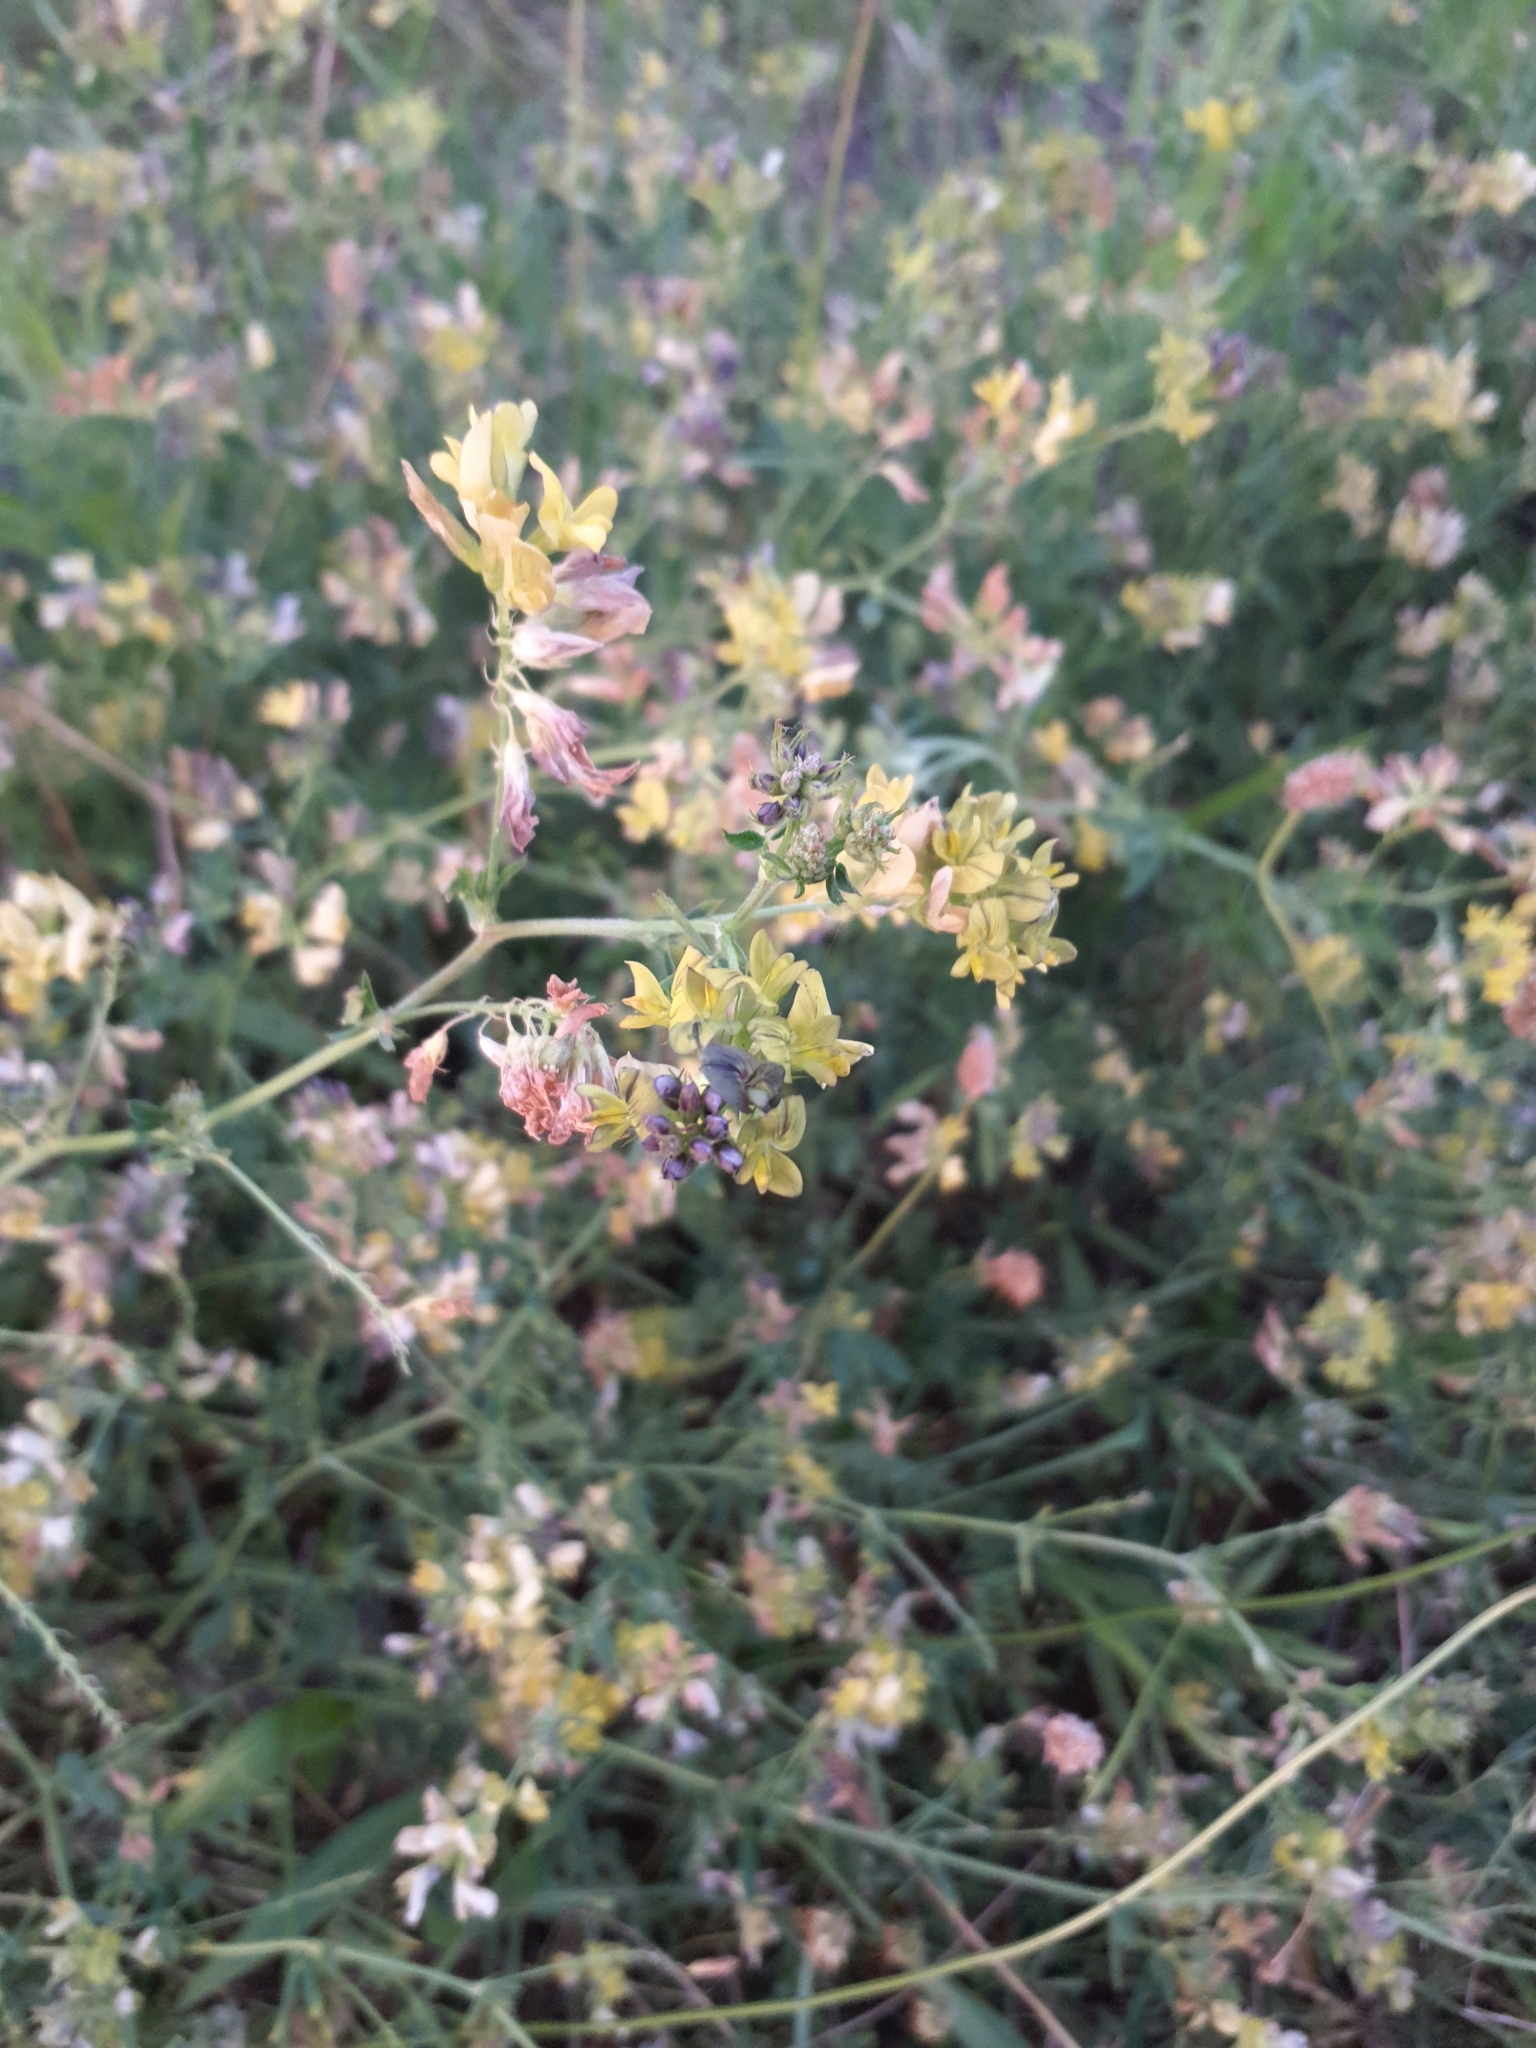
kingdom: Plantae
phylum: Tracheophyta
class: Magnoliopsida
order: Fabales
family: Fabaceae
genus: Medicago
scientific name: Medicago varia
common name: Sand lucerne
